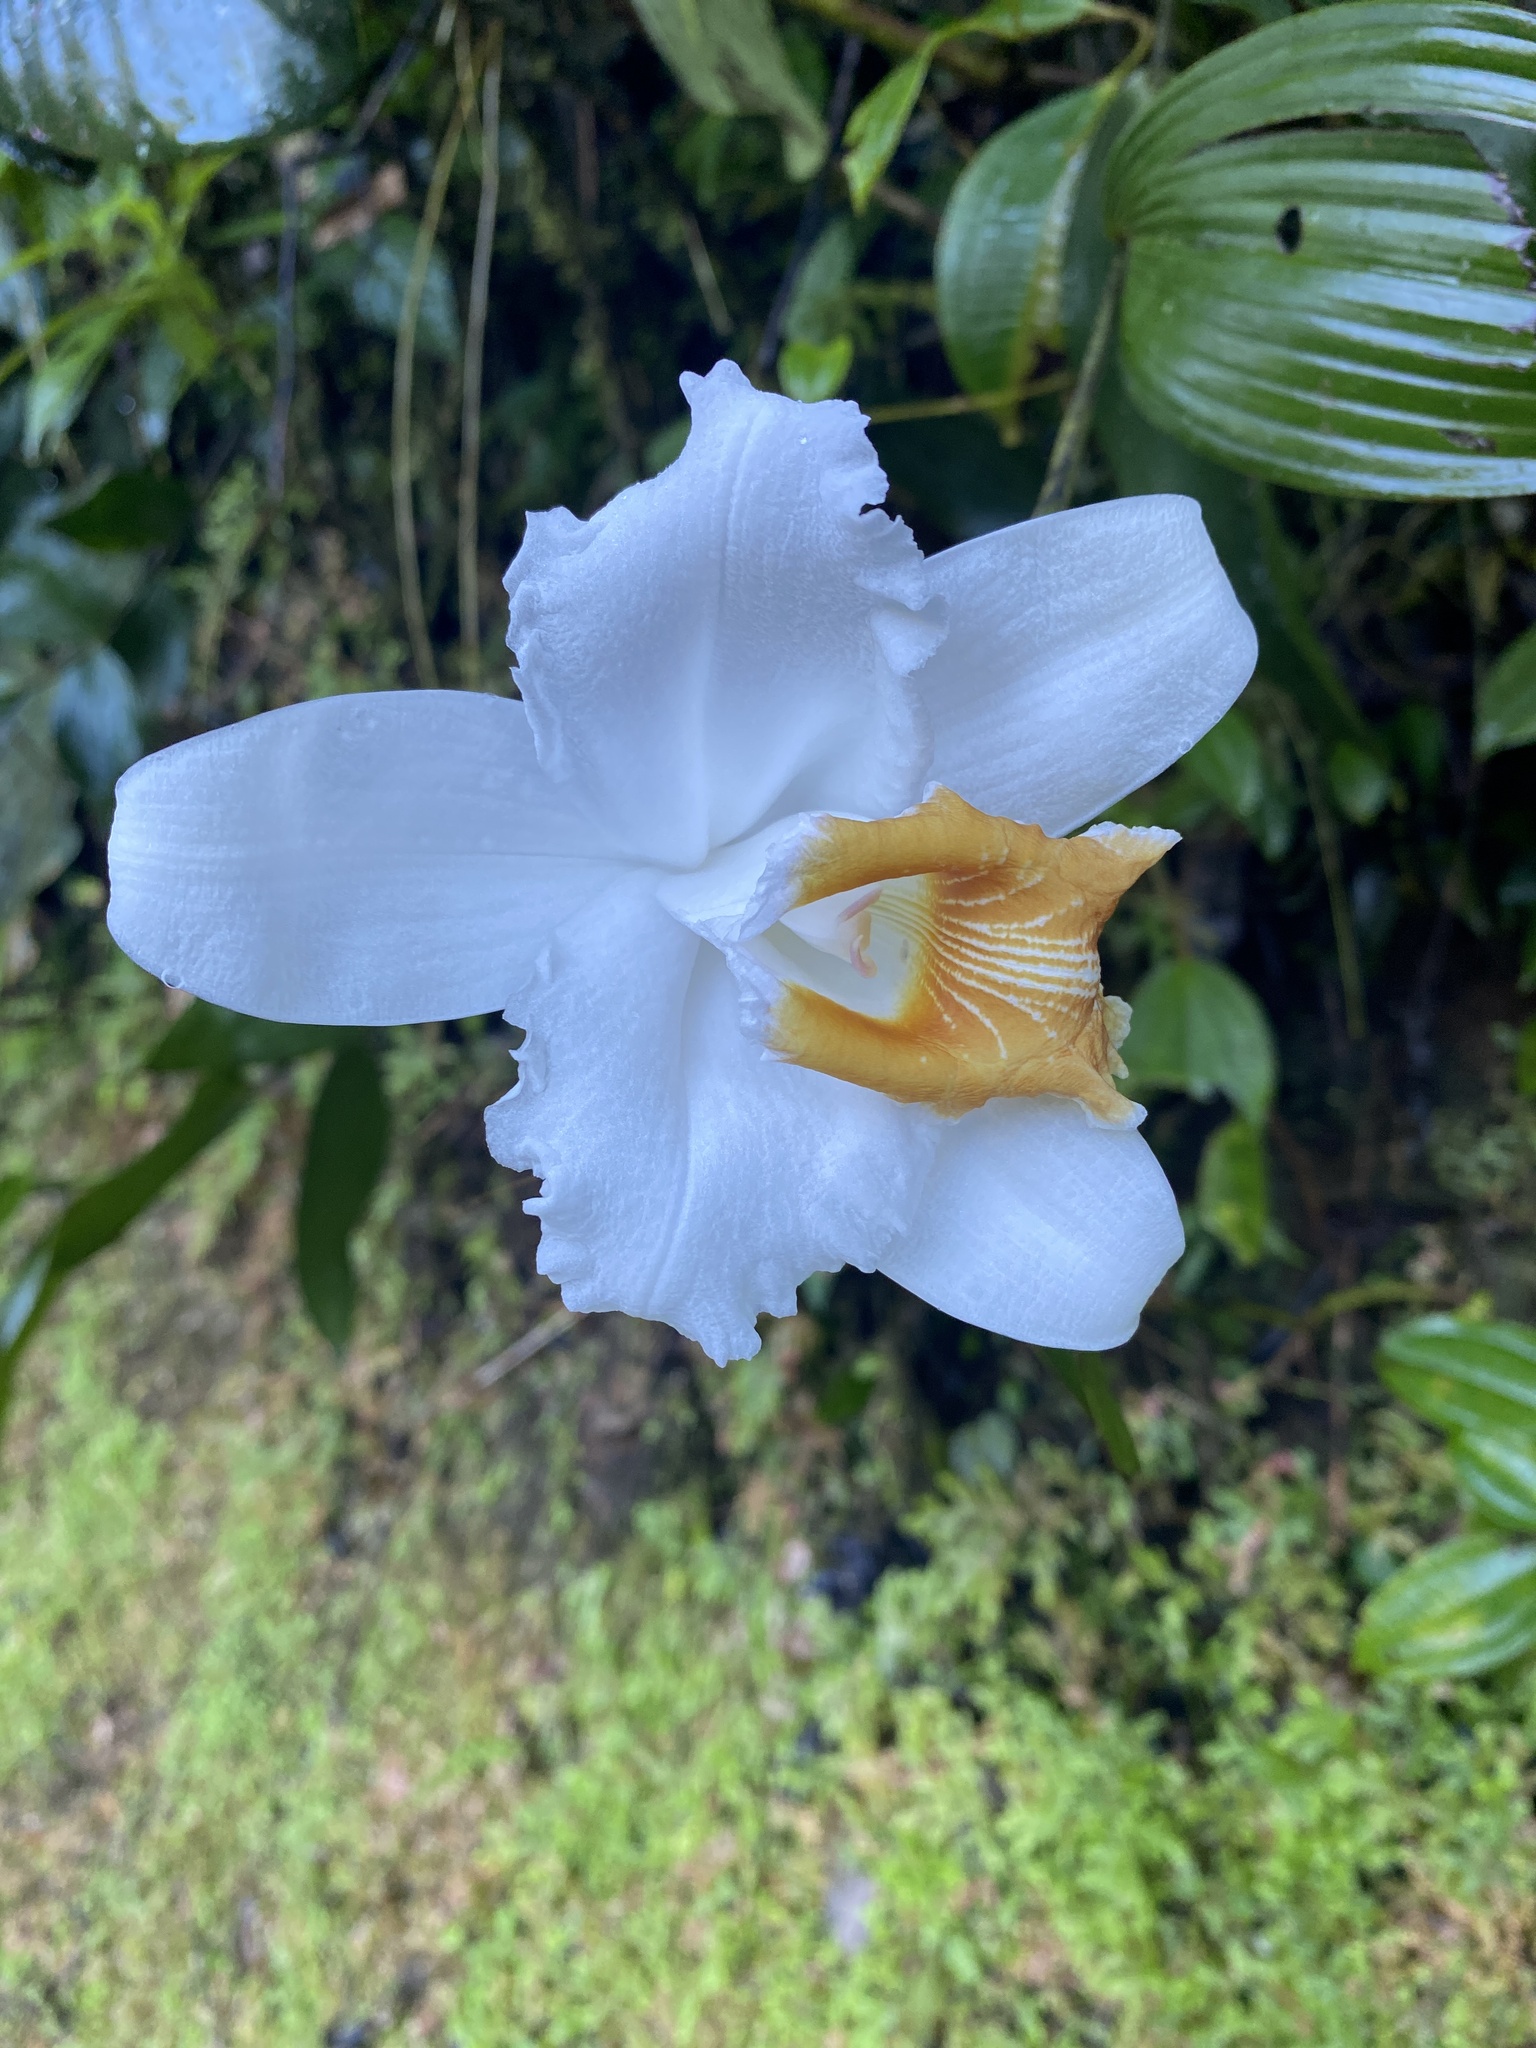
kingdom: Plantae
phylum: Tracheophyta
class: Liliopsida
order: Asparagales
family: Orchidaceae
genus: Sobralia
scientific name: Sobralia chrysostoma
